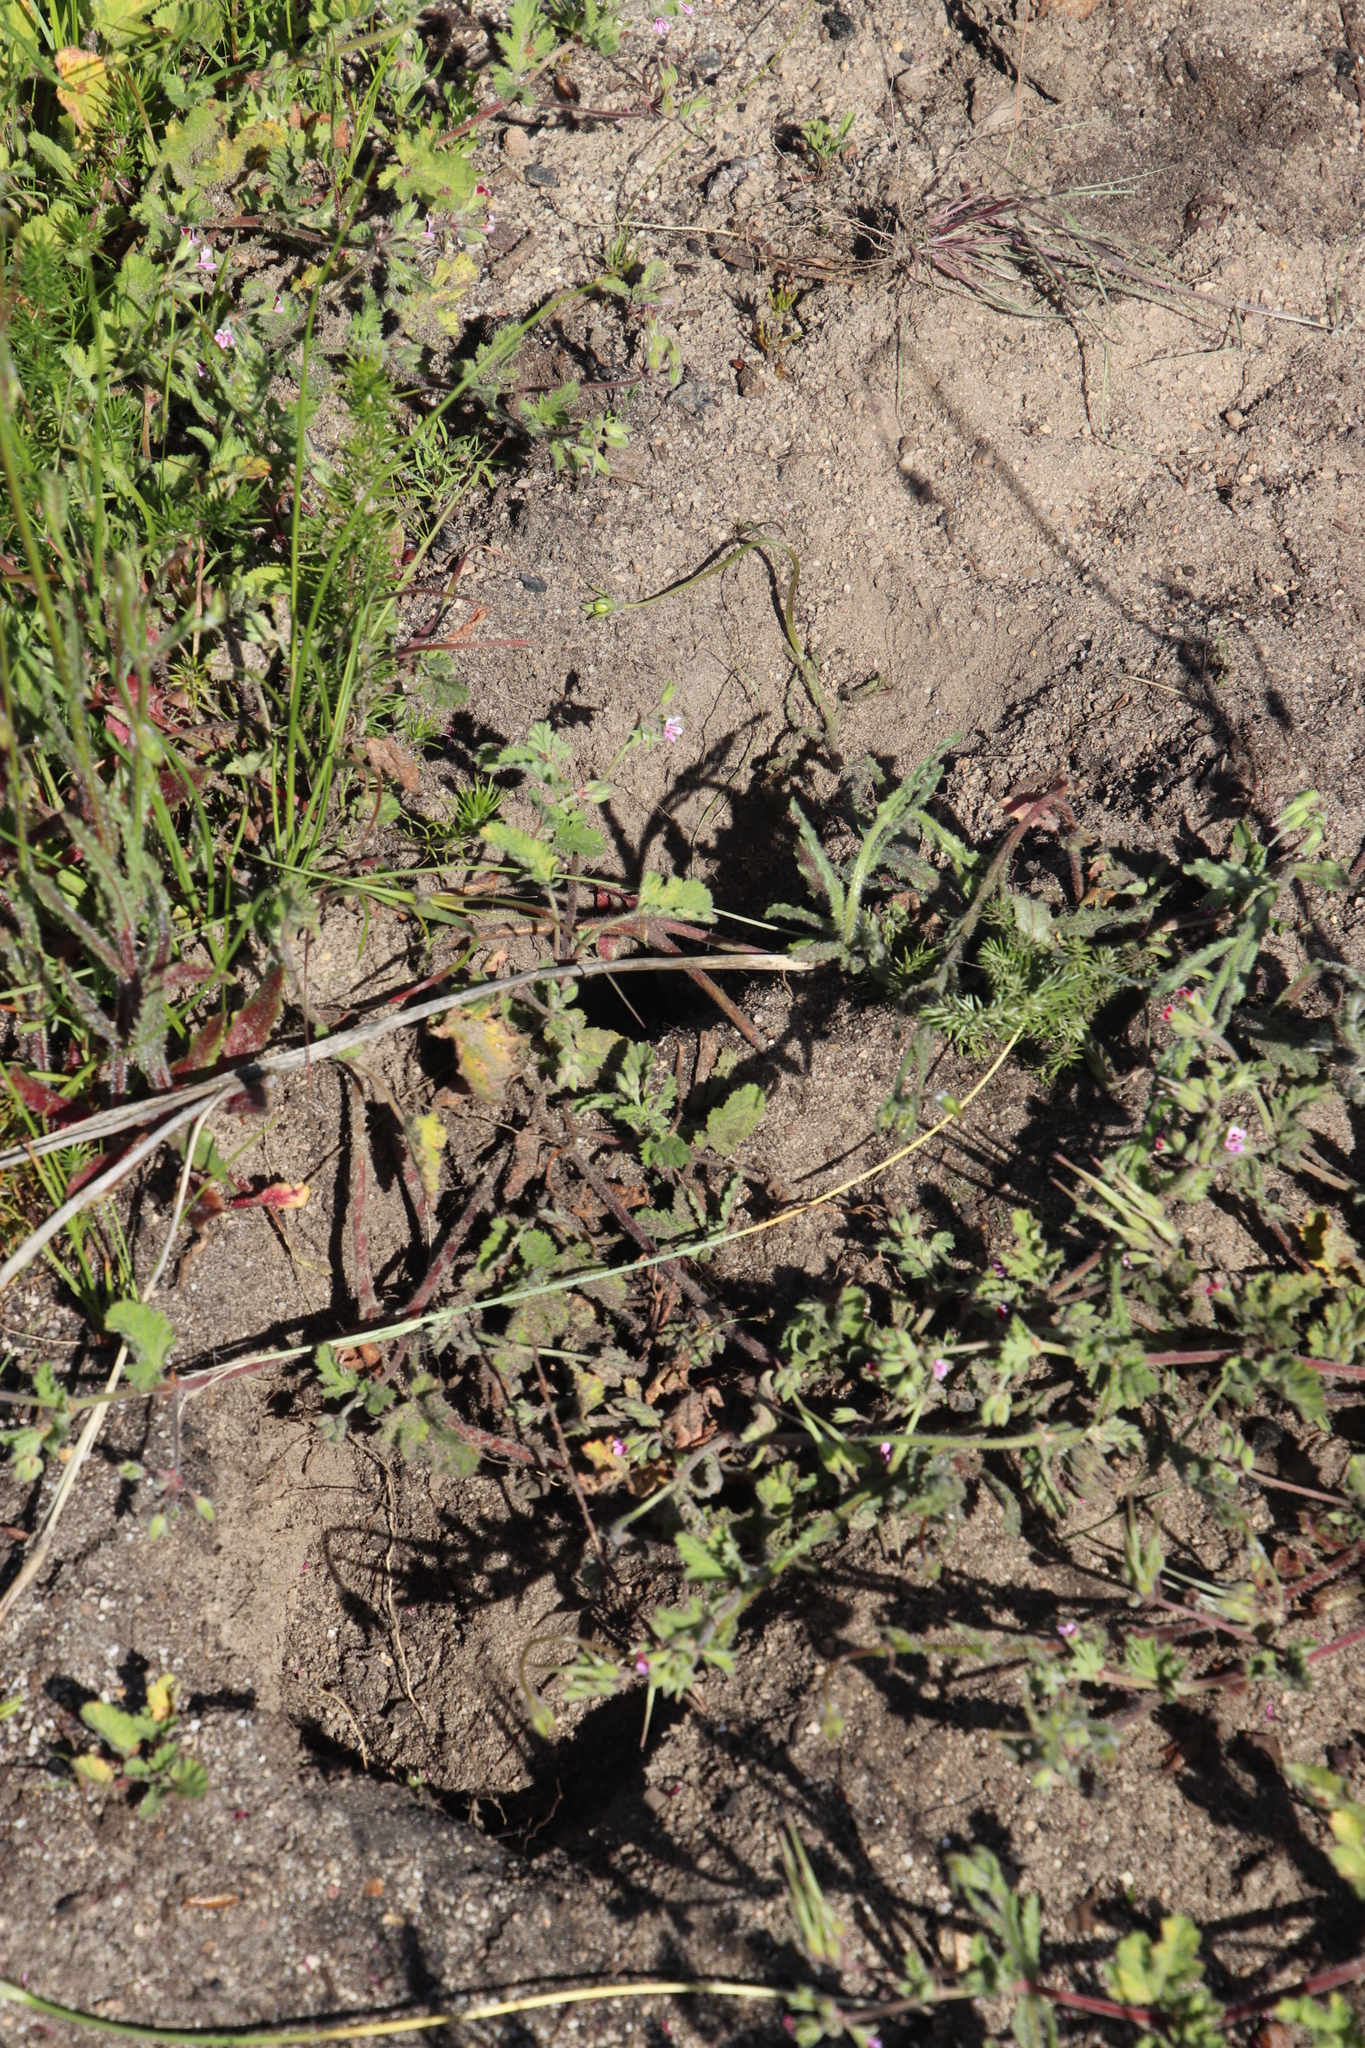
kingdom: Plantae
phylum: Tracheophyta
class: Magnoliopsida
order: Geraniales
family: Geraniaceae
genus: Pelargonium
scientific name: Pelargonium althaeoides
